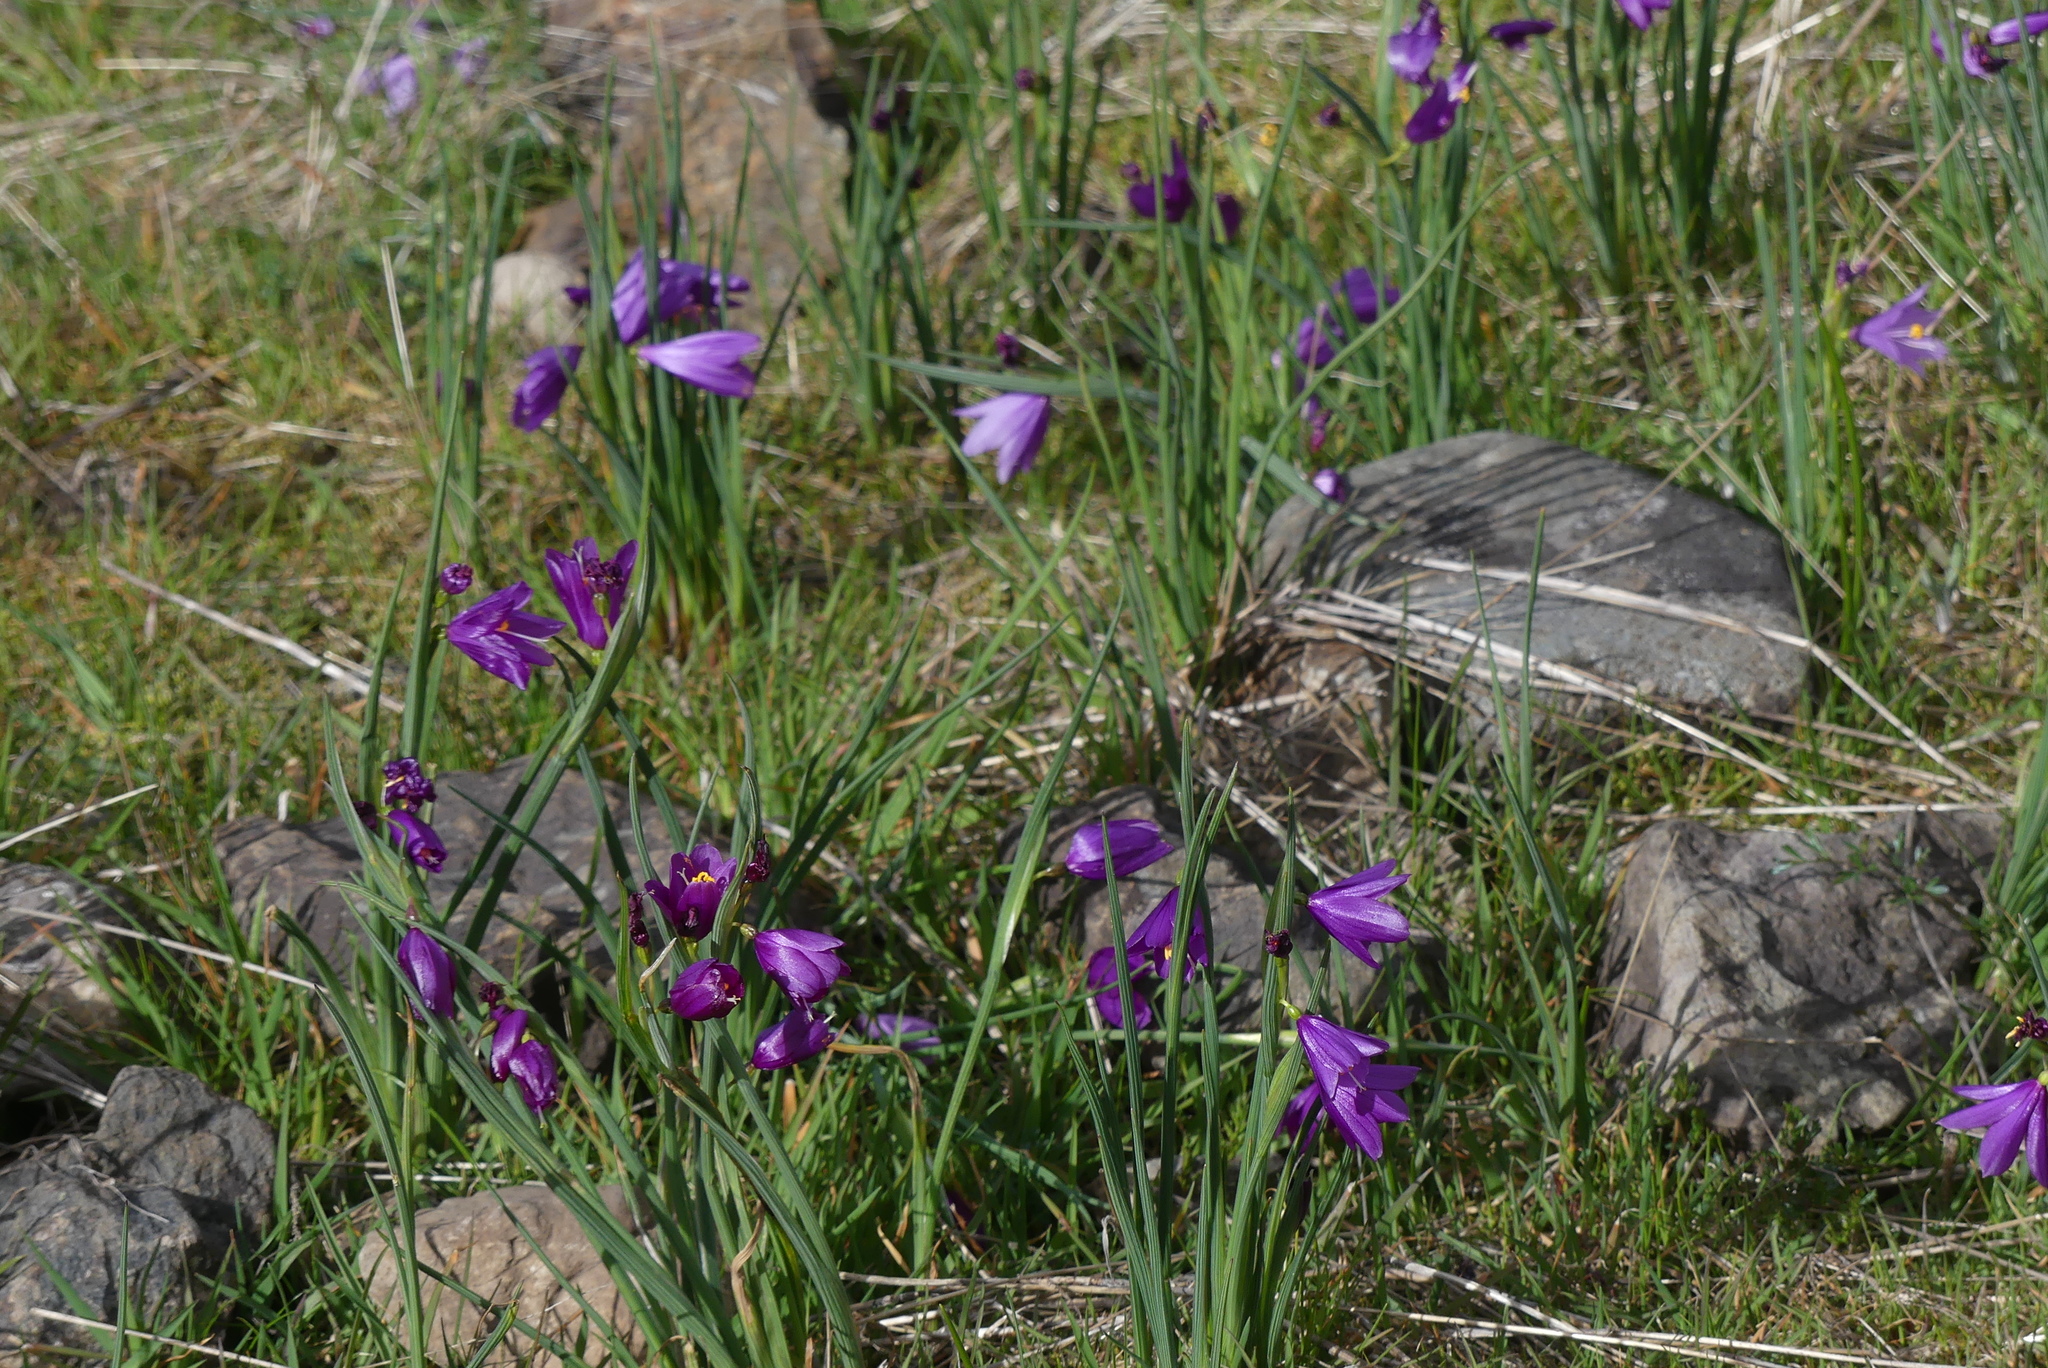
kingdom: Plantae
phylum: Tracheophyta
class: Liliopsida
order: Asparagales
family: Iridaceae
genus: Olsynium
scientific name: Olsynium douglasii
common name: Douglas' grasswidow
